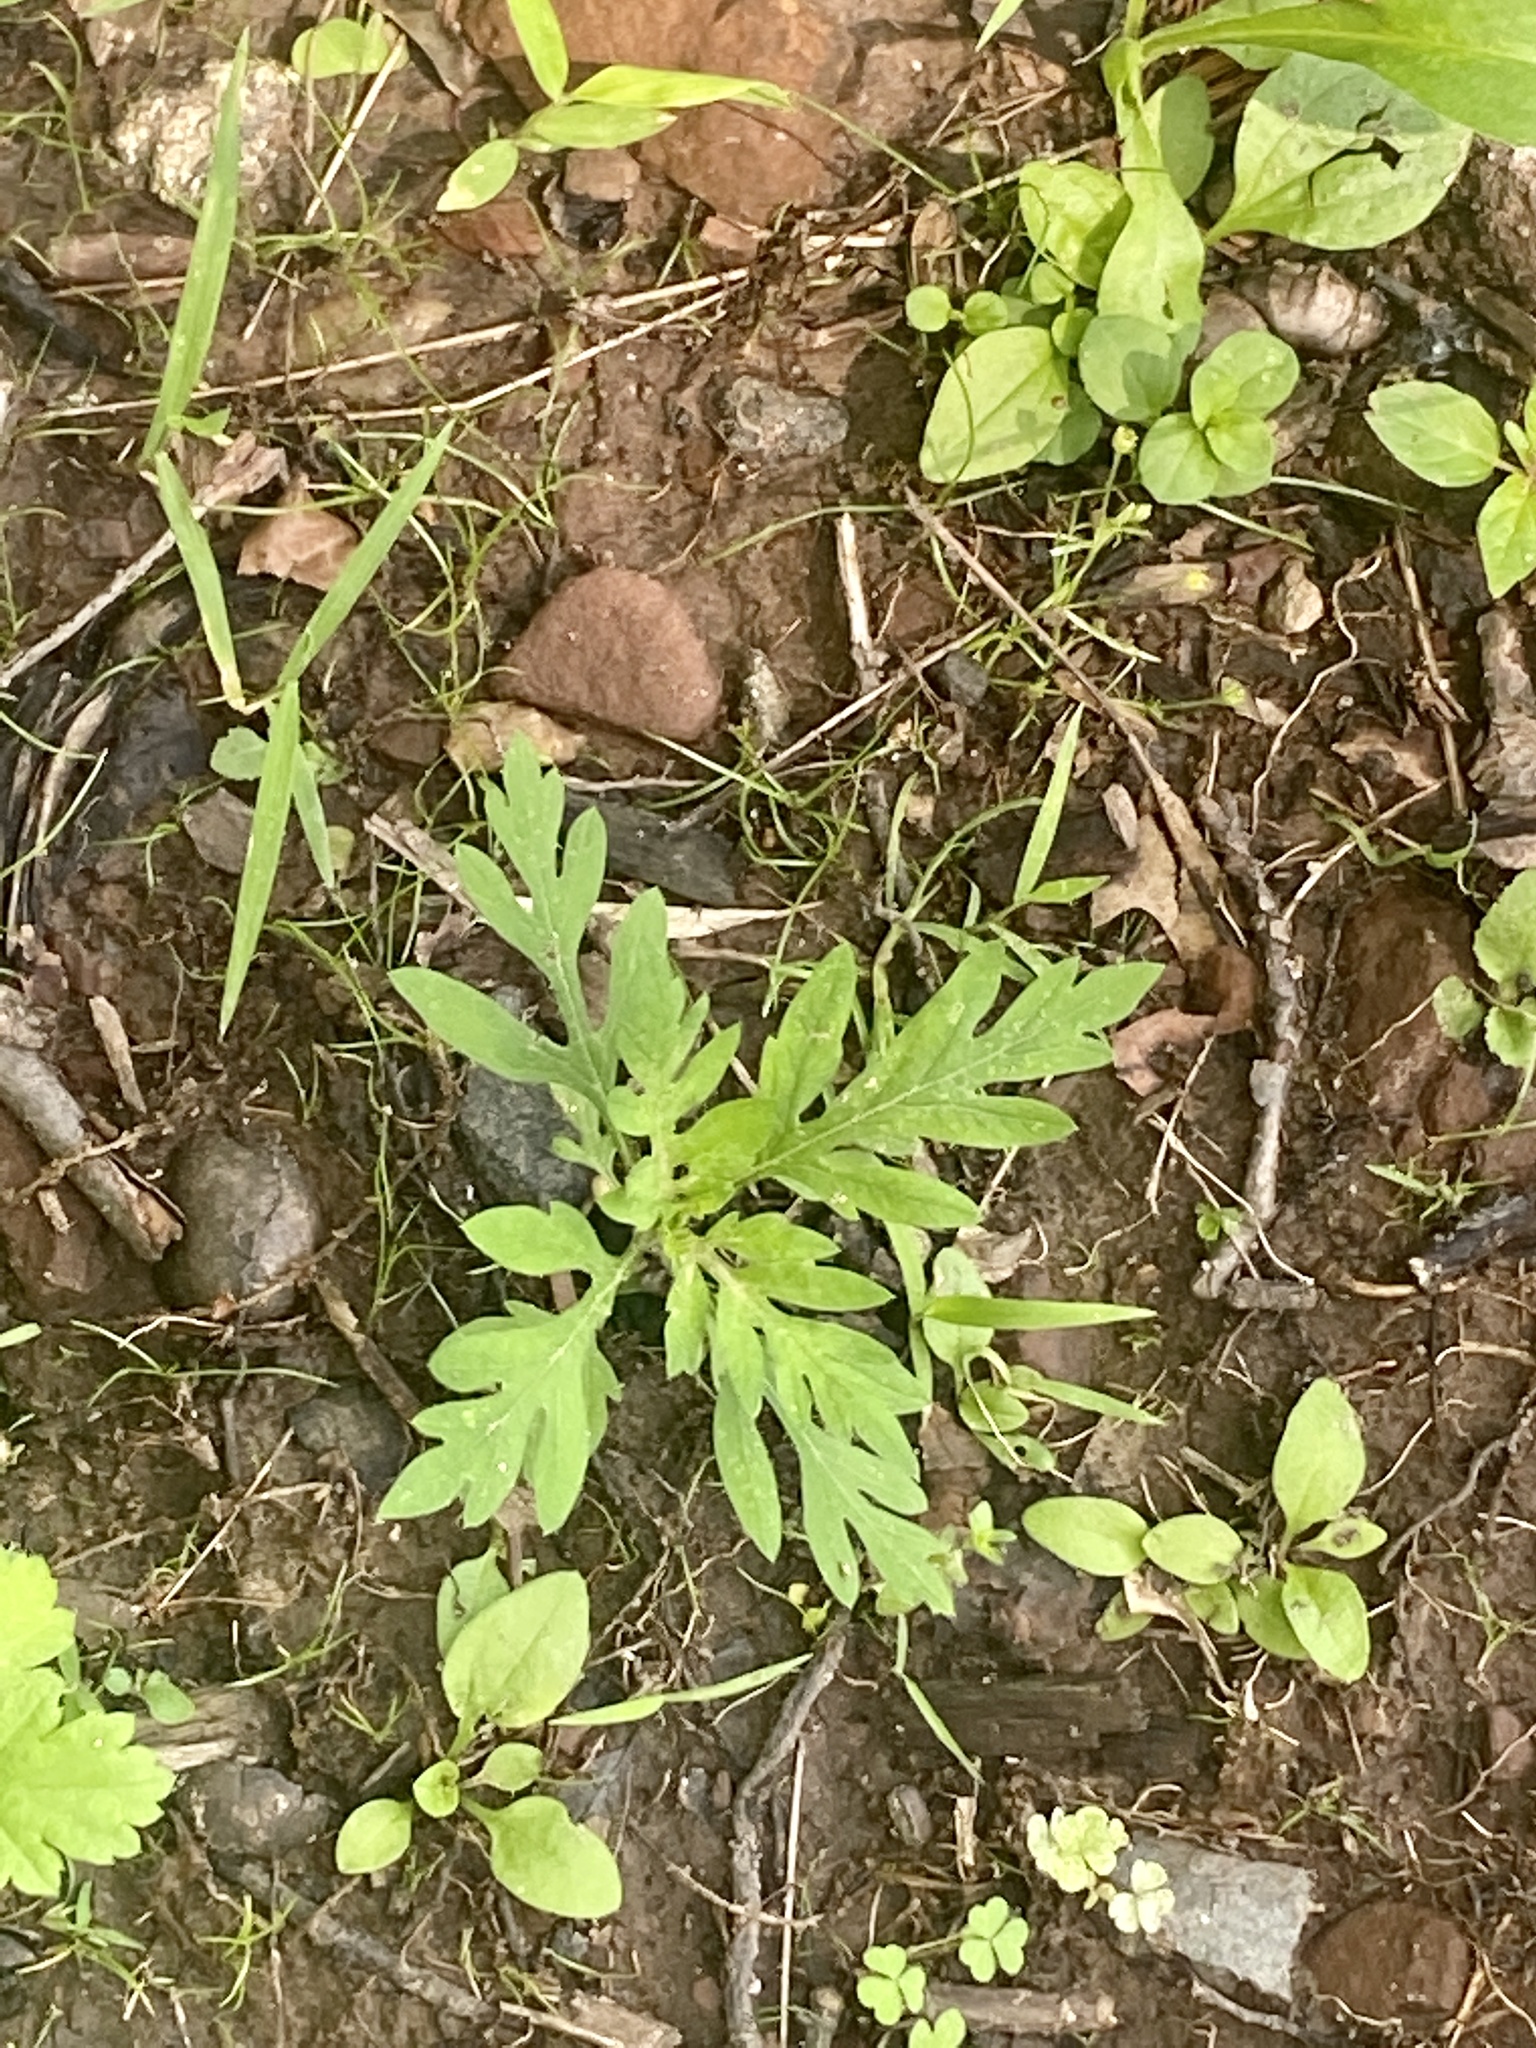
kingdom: Plantae
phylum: Tracheophyta
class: Magnoliopsida
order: Asterales
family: Asteraceae
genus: Ambrosia
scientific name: Ambrosia artemisiifolia
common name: Annual ragweed
